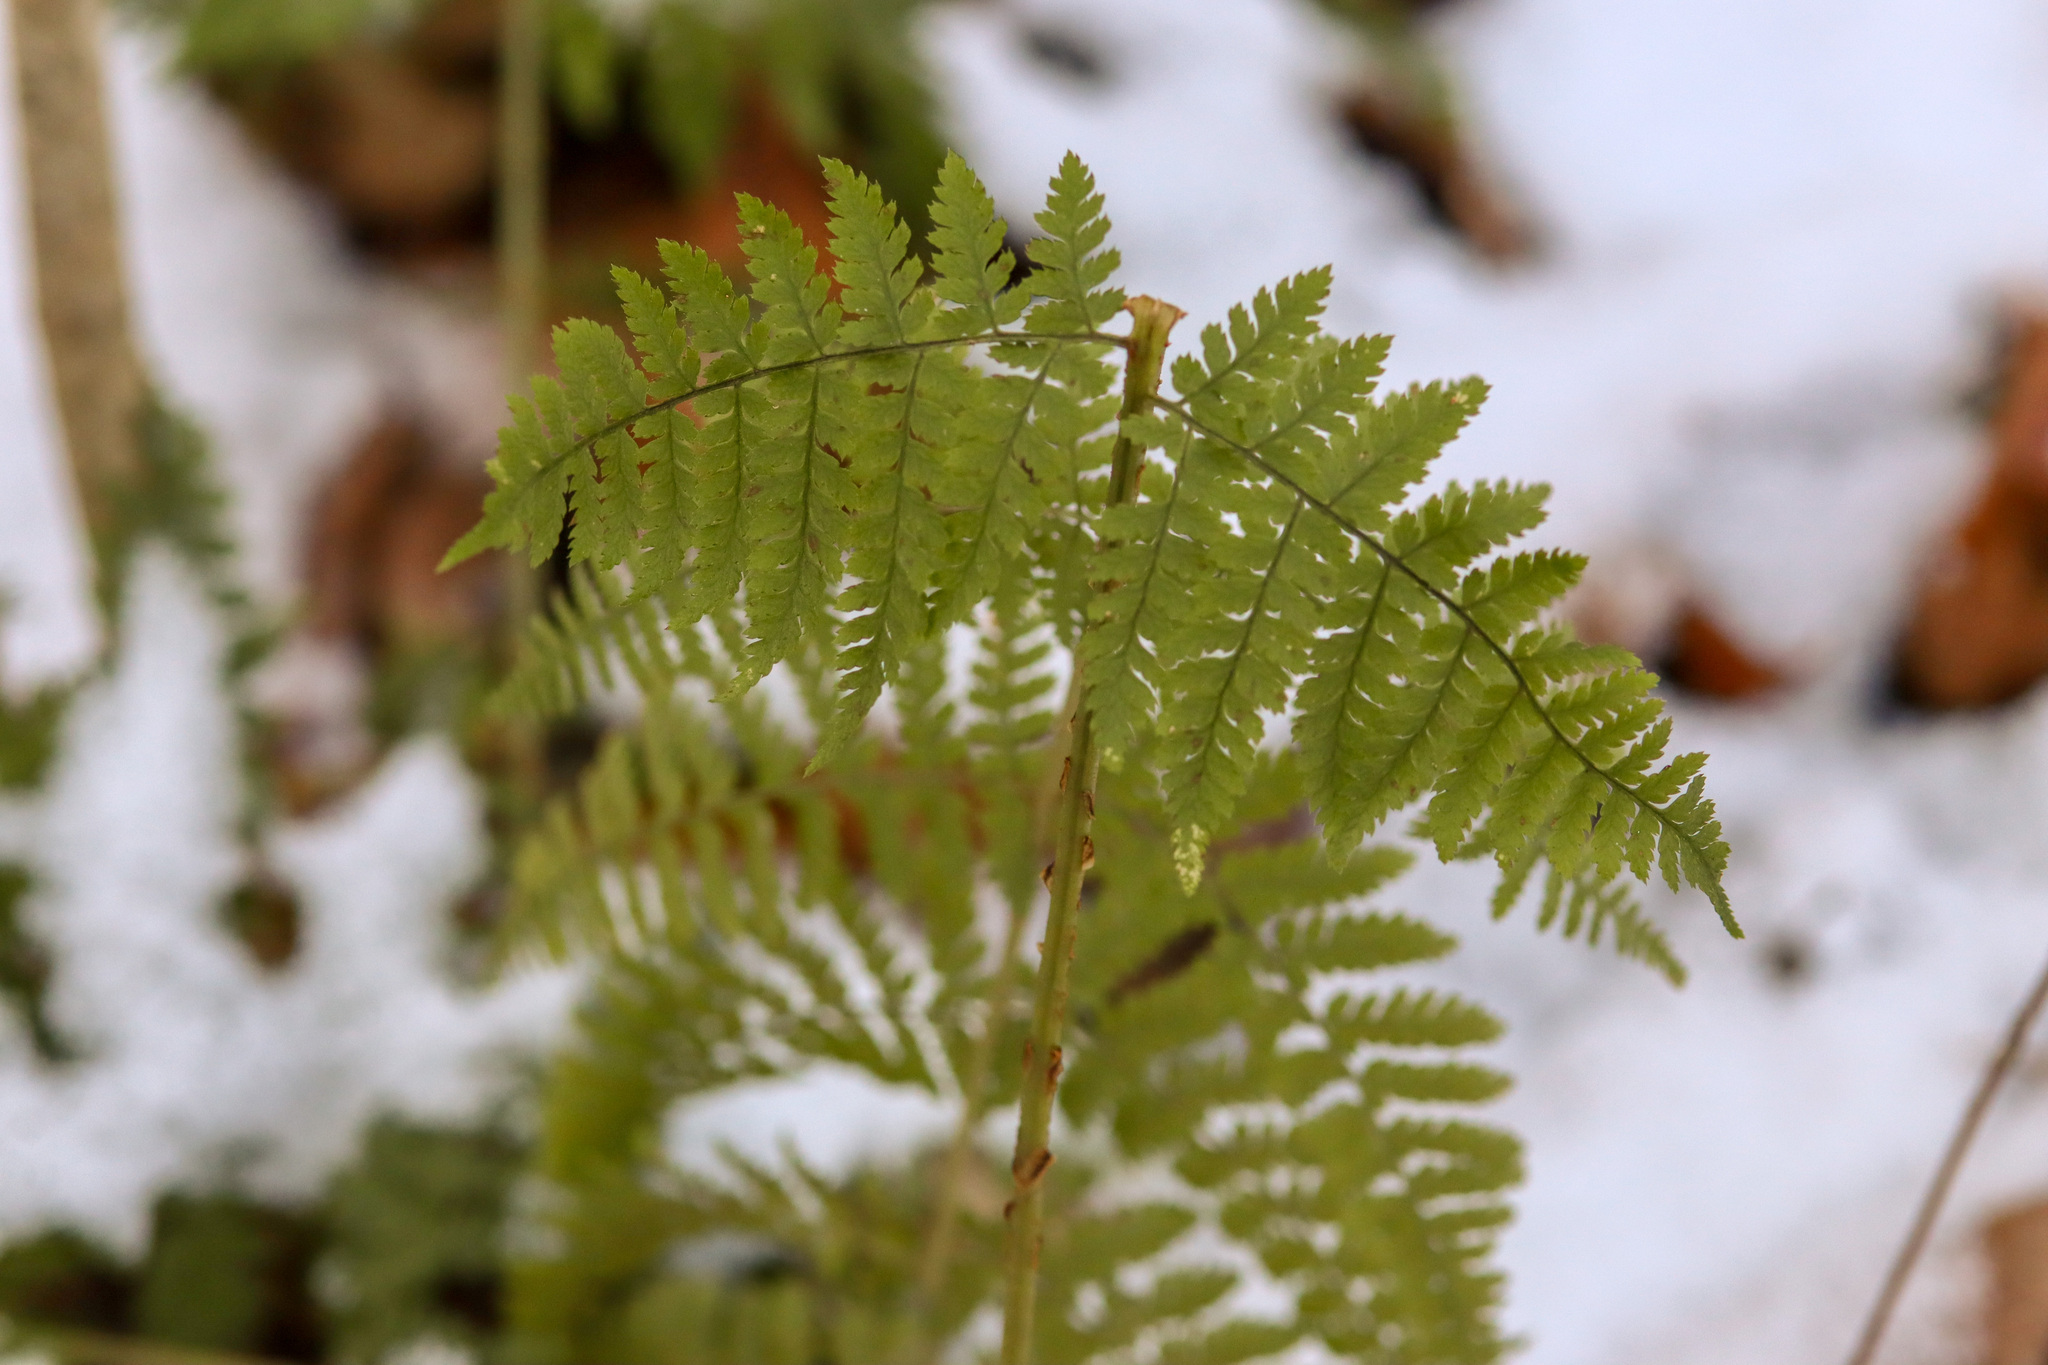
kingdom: Plantae
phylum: Tracheophyta
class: Polypodiopsida
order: Polypodiales
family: Dryopteridaceae
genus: Dryopteris
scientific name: Dryopteris intermedia
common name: Evergreen wood fern
